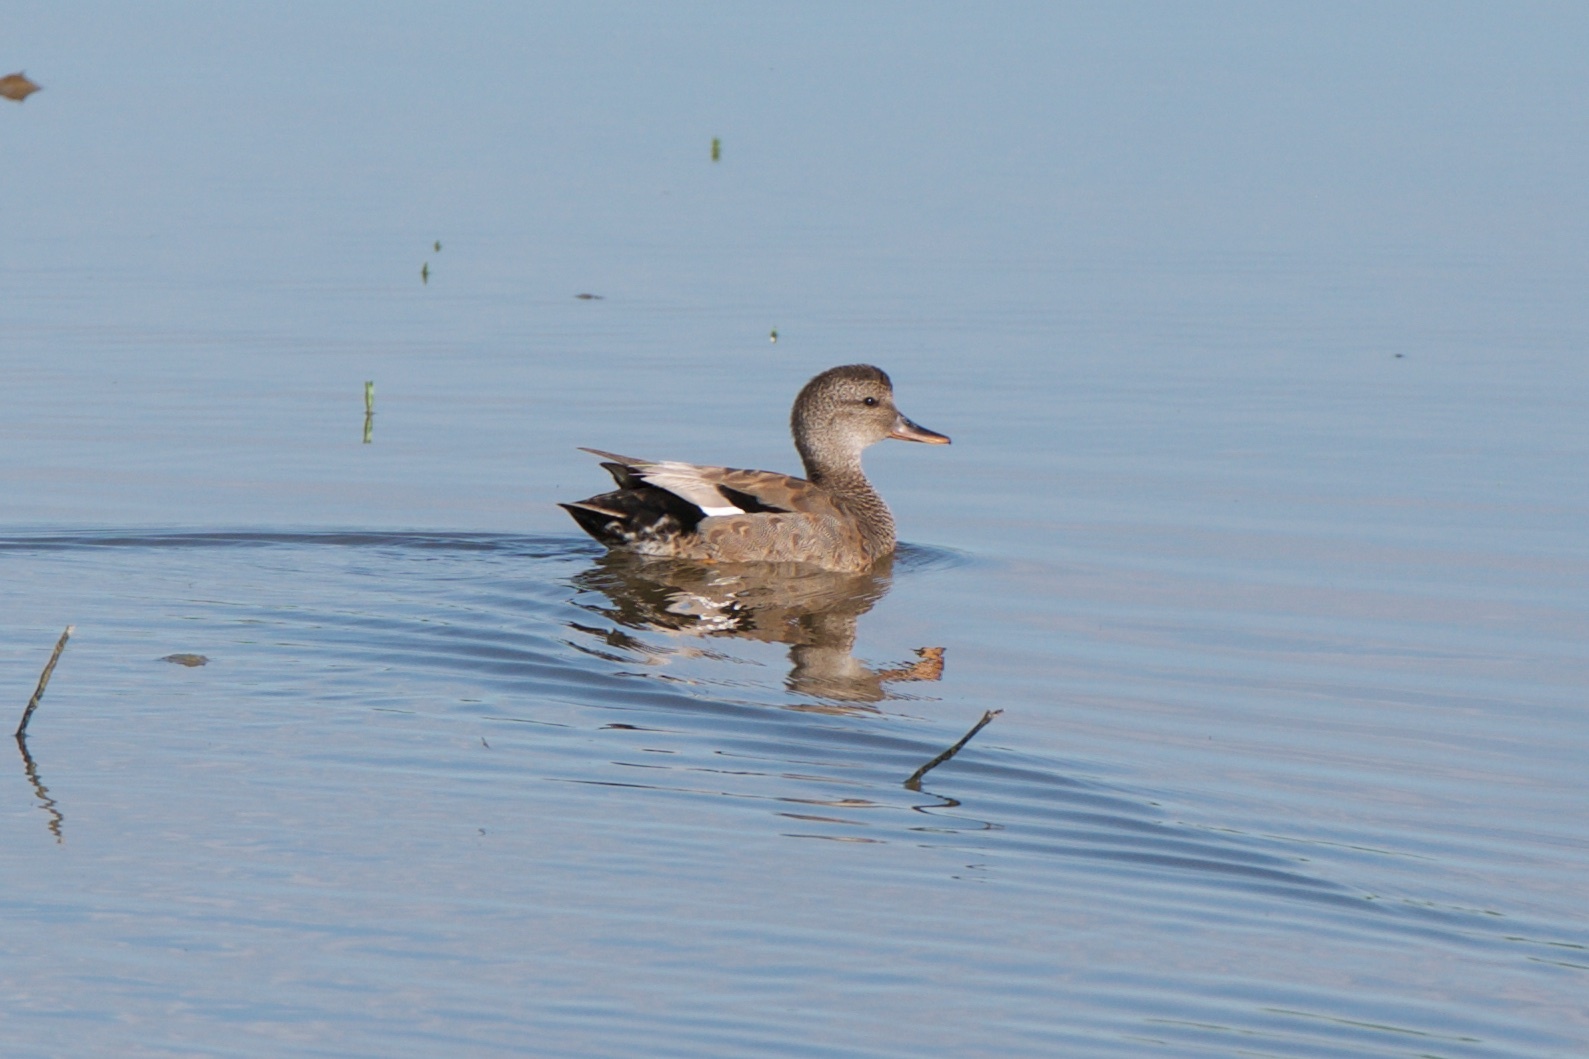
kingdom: Animalia
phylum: Chordata
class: Aves
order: Anseriformes
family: Anatidae
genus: Mareca
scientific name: Mareca strepera
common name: Gadwall
